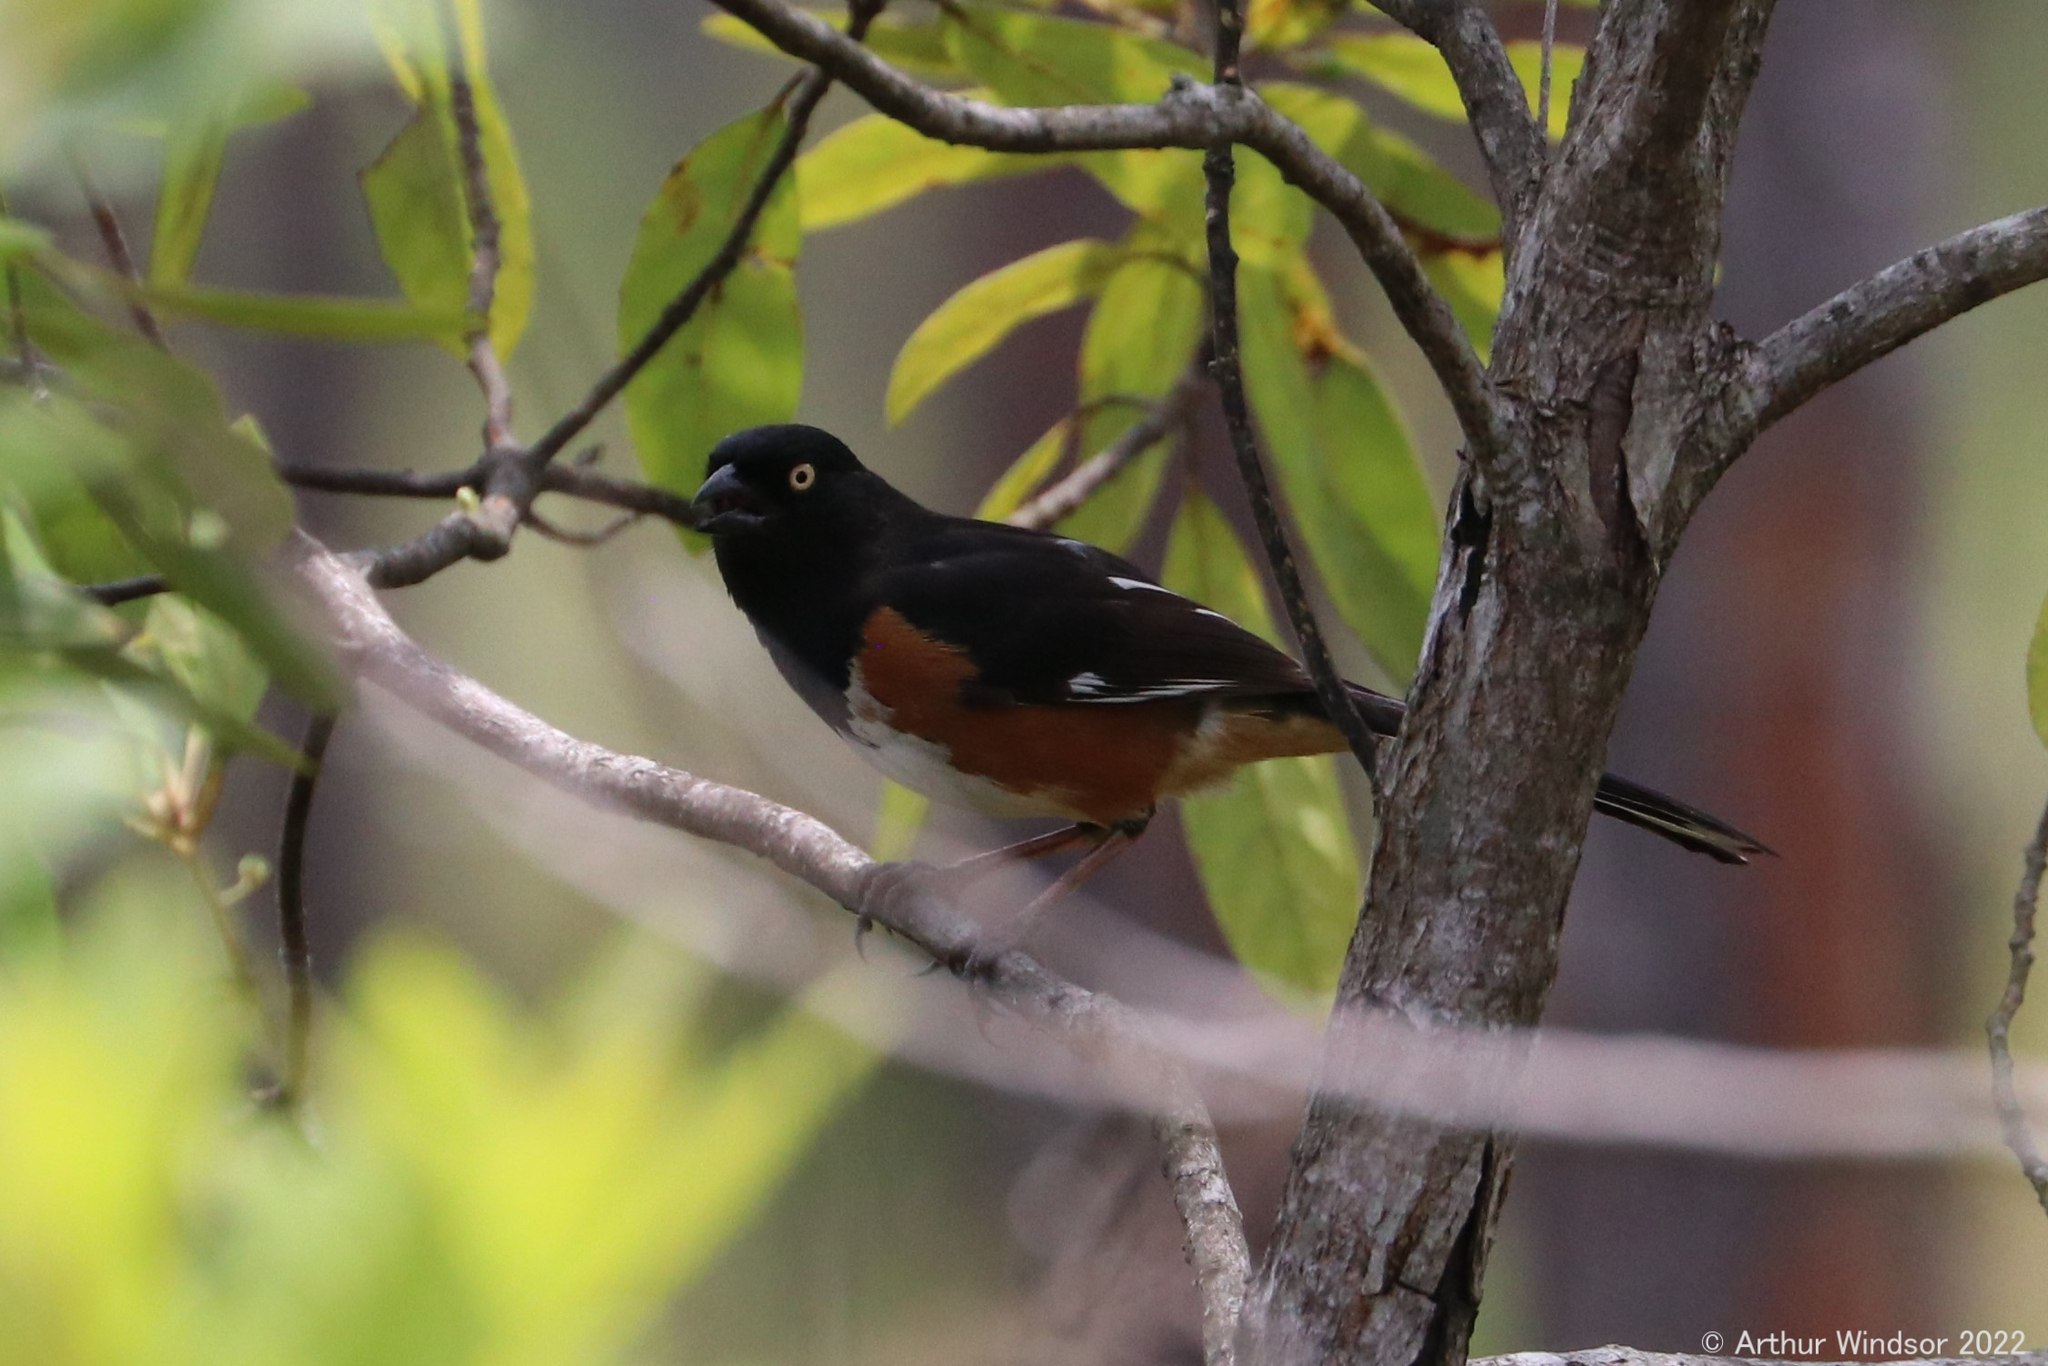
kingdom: Animalia
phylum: Chordata
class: Aves
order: Passeriformes
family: Passerellidae
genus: Pipilo
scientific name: Pipilo erythrophthalmus
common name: Eastern towhee
